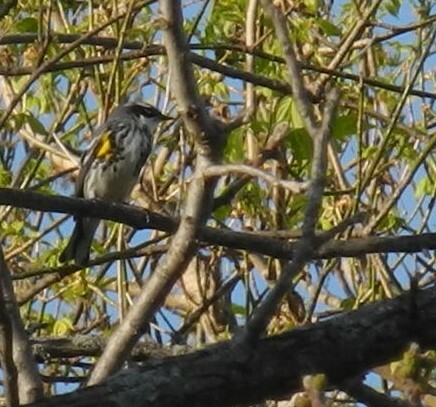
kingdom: Animalia
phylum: Chordata
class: Aves
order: Passeriformes
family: Parulidae
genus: Setophaga
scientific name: Setophaga coronata
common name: Myrtle warbler
